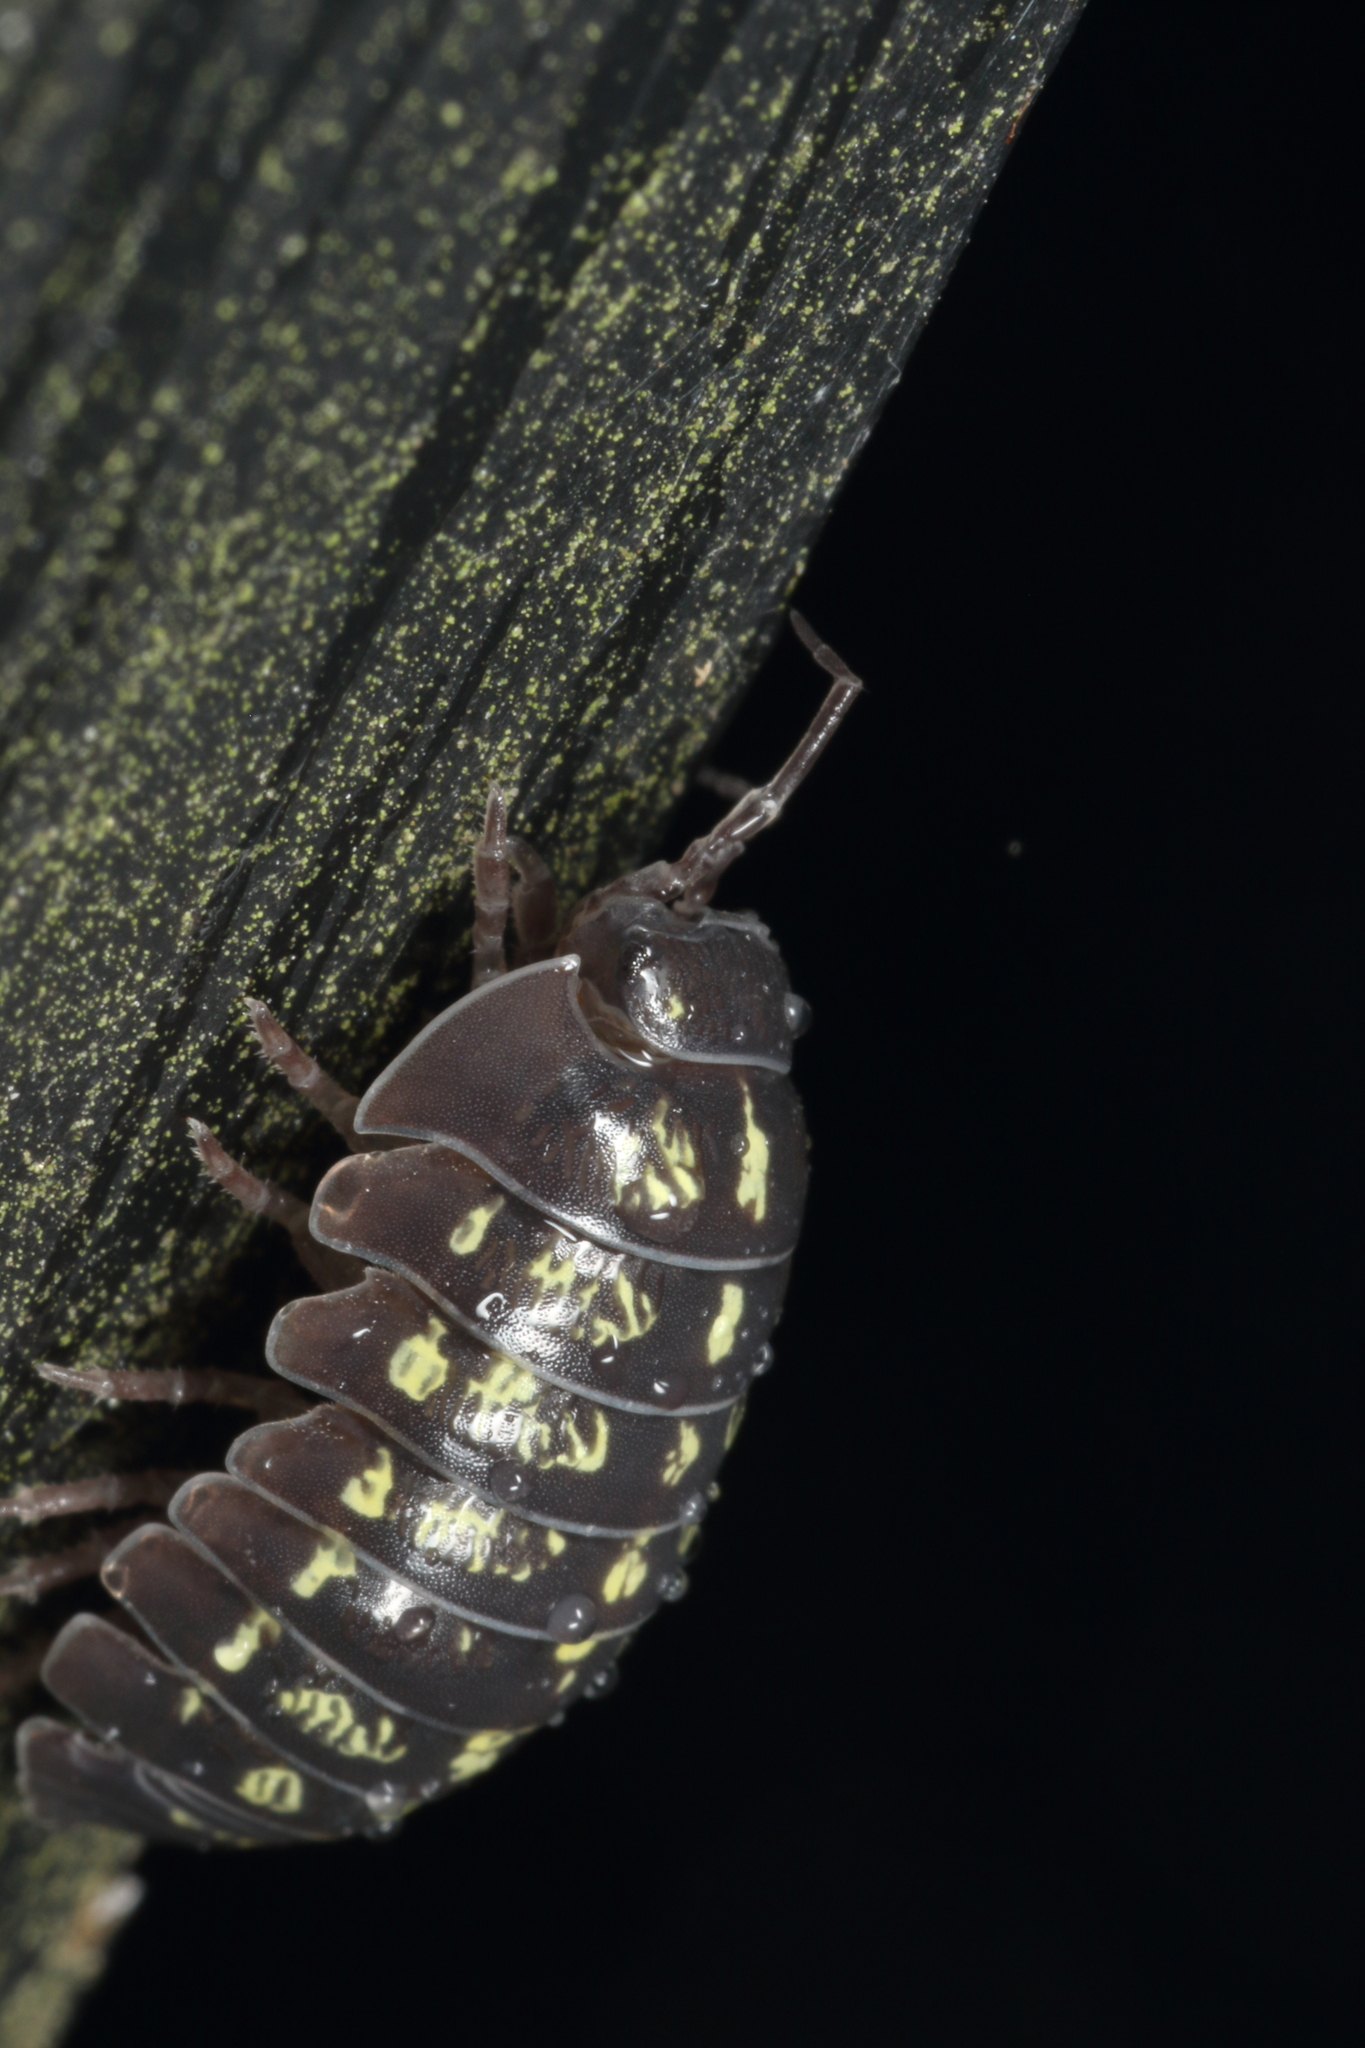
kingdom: Animalia
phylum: Arthropoda
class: Malacostraca
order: Isopoda
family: Armadillidiidae
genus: Armadillidium
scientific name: Armadillidium vulgare
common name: Common pill woodlouse
